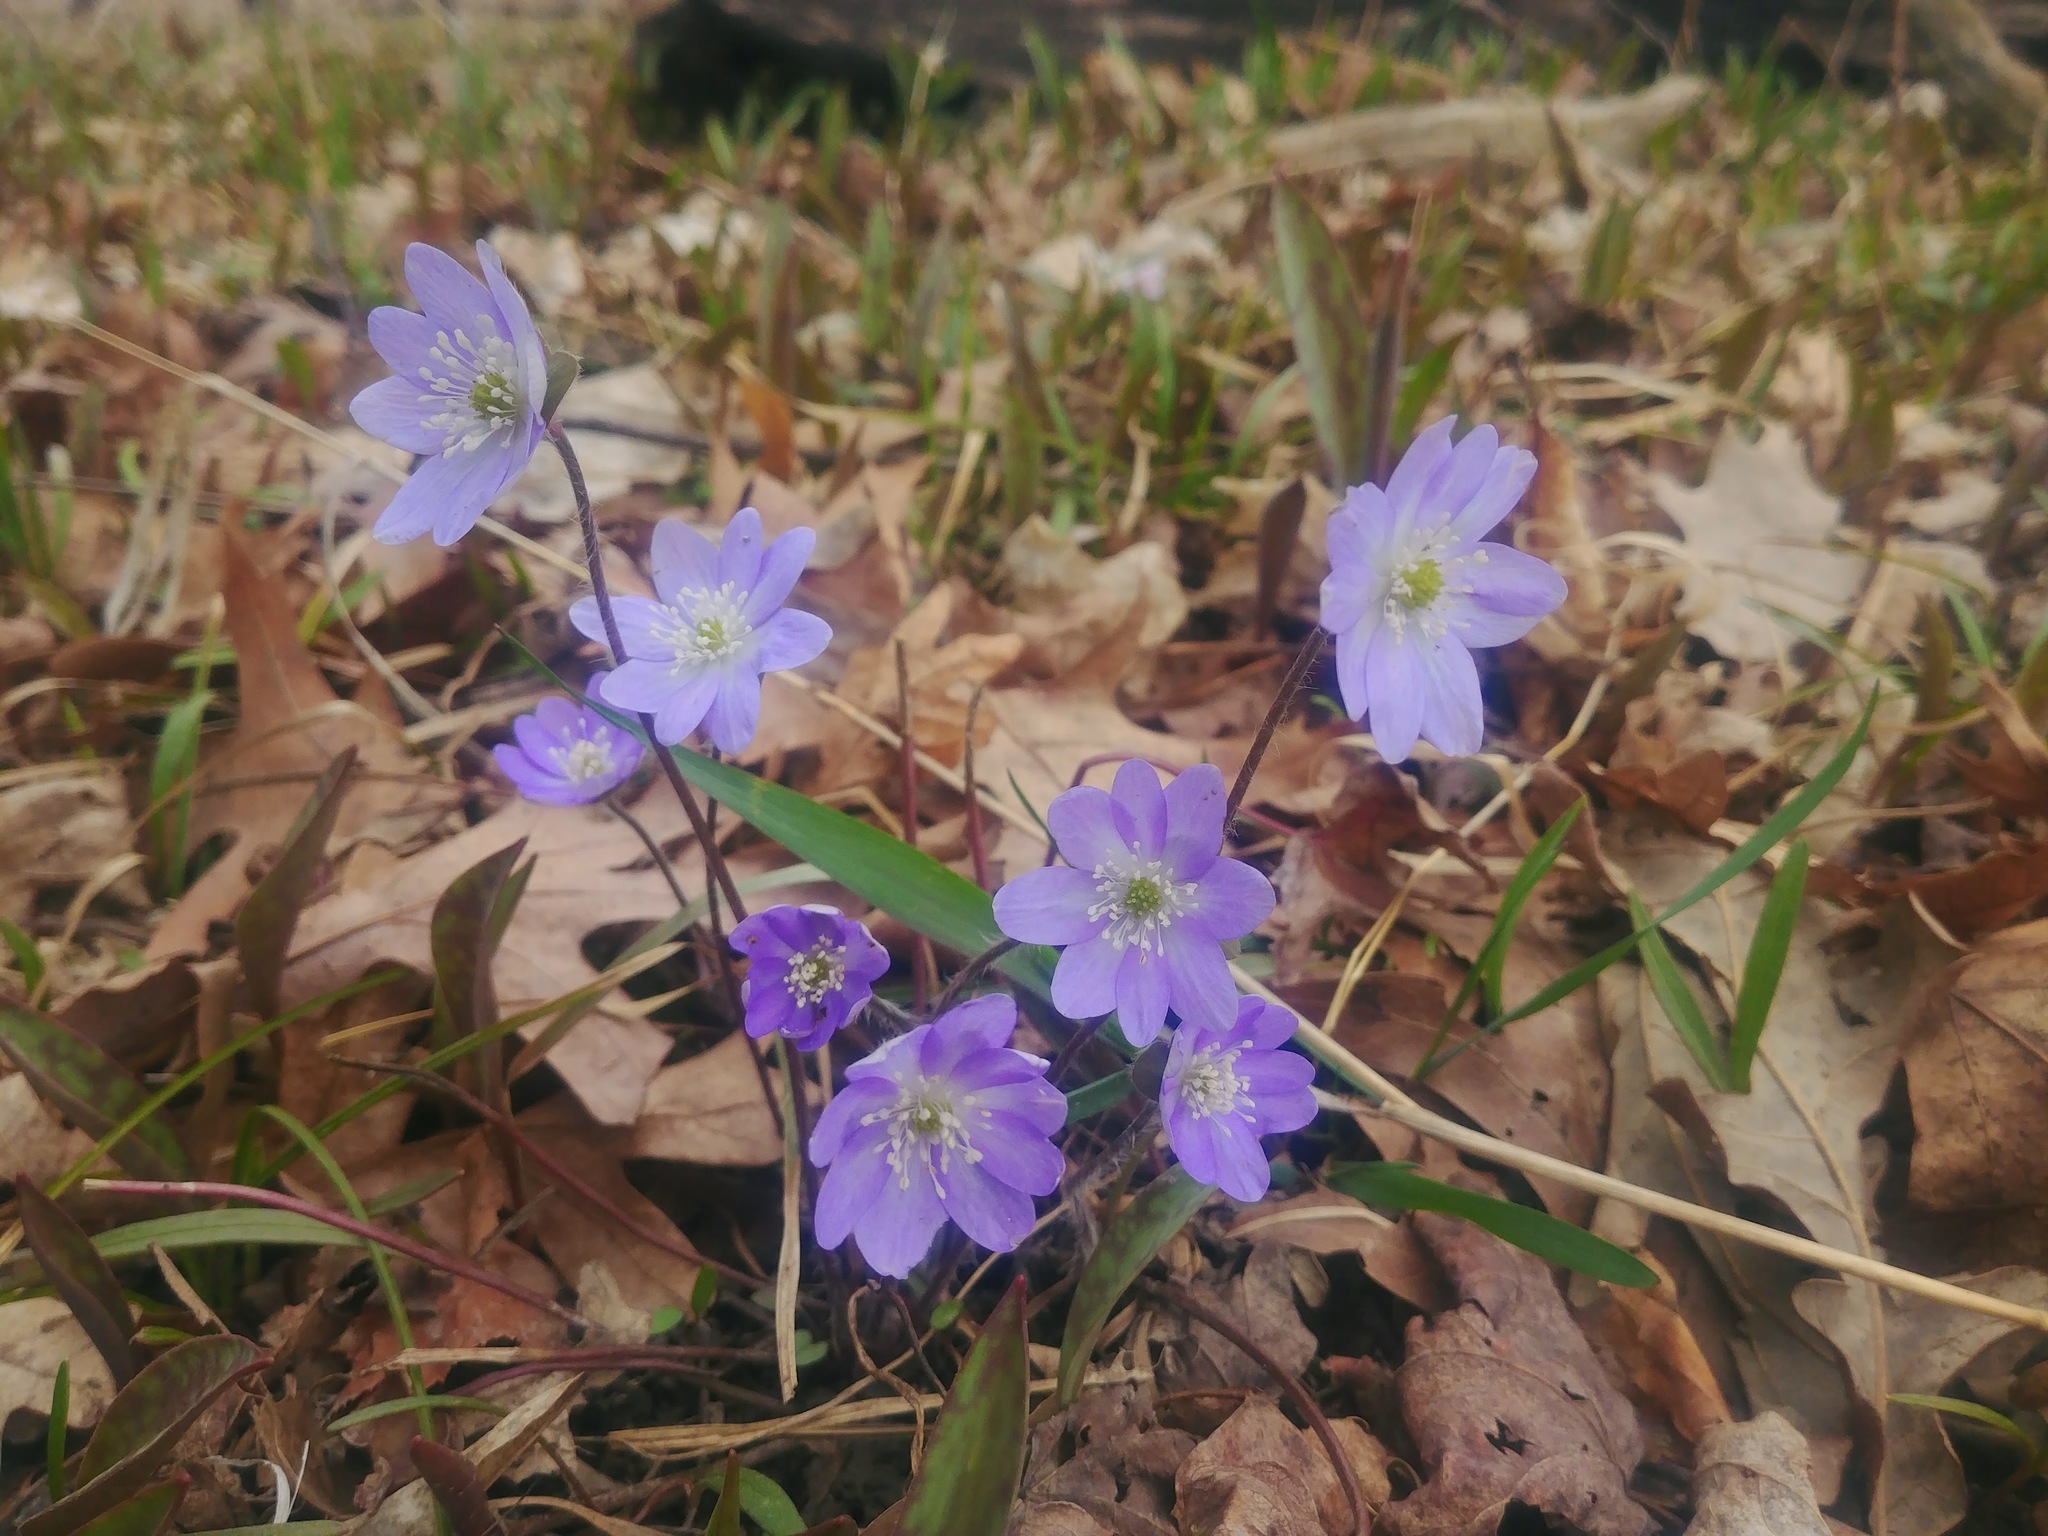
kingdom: Plantae
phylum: Tracheophyta
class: Magnoliopsida
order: Ranunculales
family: Ranunculaceae
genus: Hepatica
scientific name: Hepatica acutiloba
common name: Sharp-lobed hepatica
